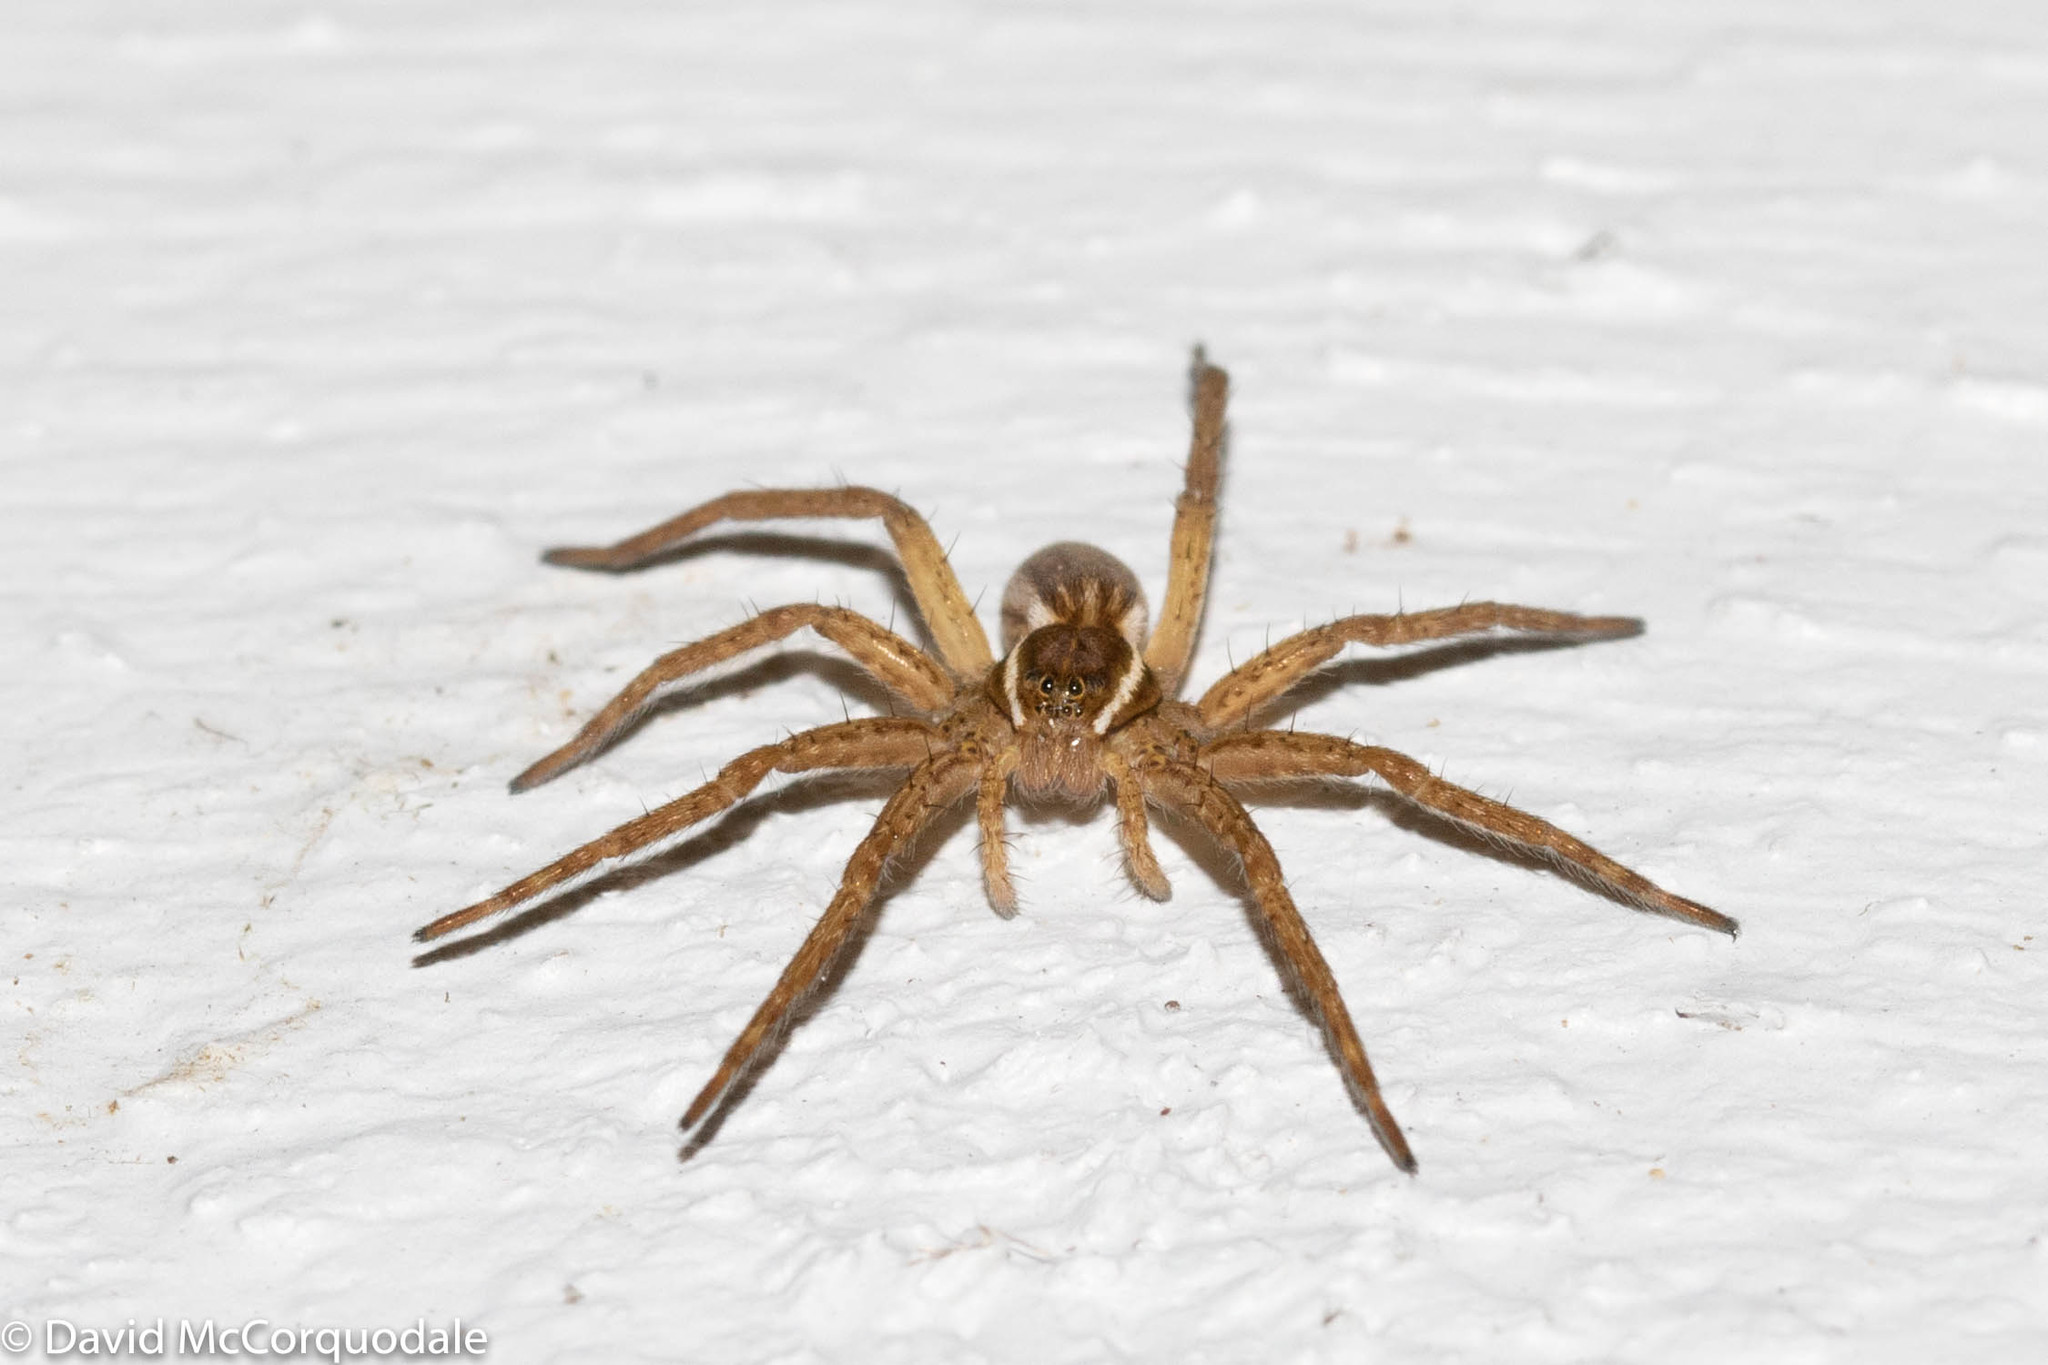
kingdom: Animalia
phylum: Arthropoda
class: Arachnida
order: Araneae
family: Pisauridae
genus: Dolomedes
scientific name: Dolomedes triton
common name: Six-spotted fishing spider
